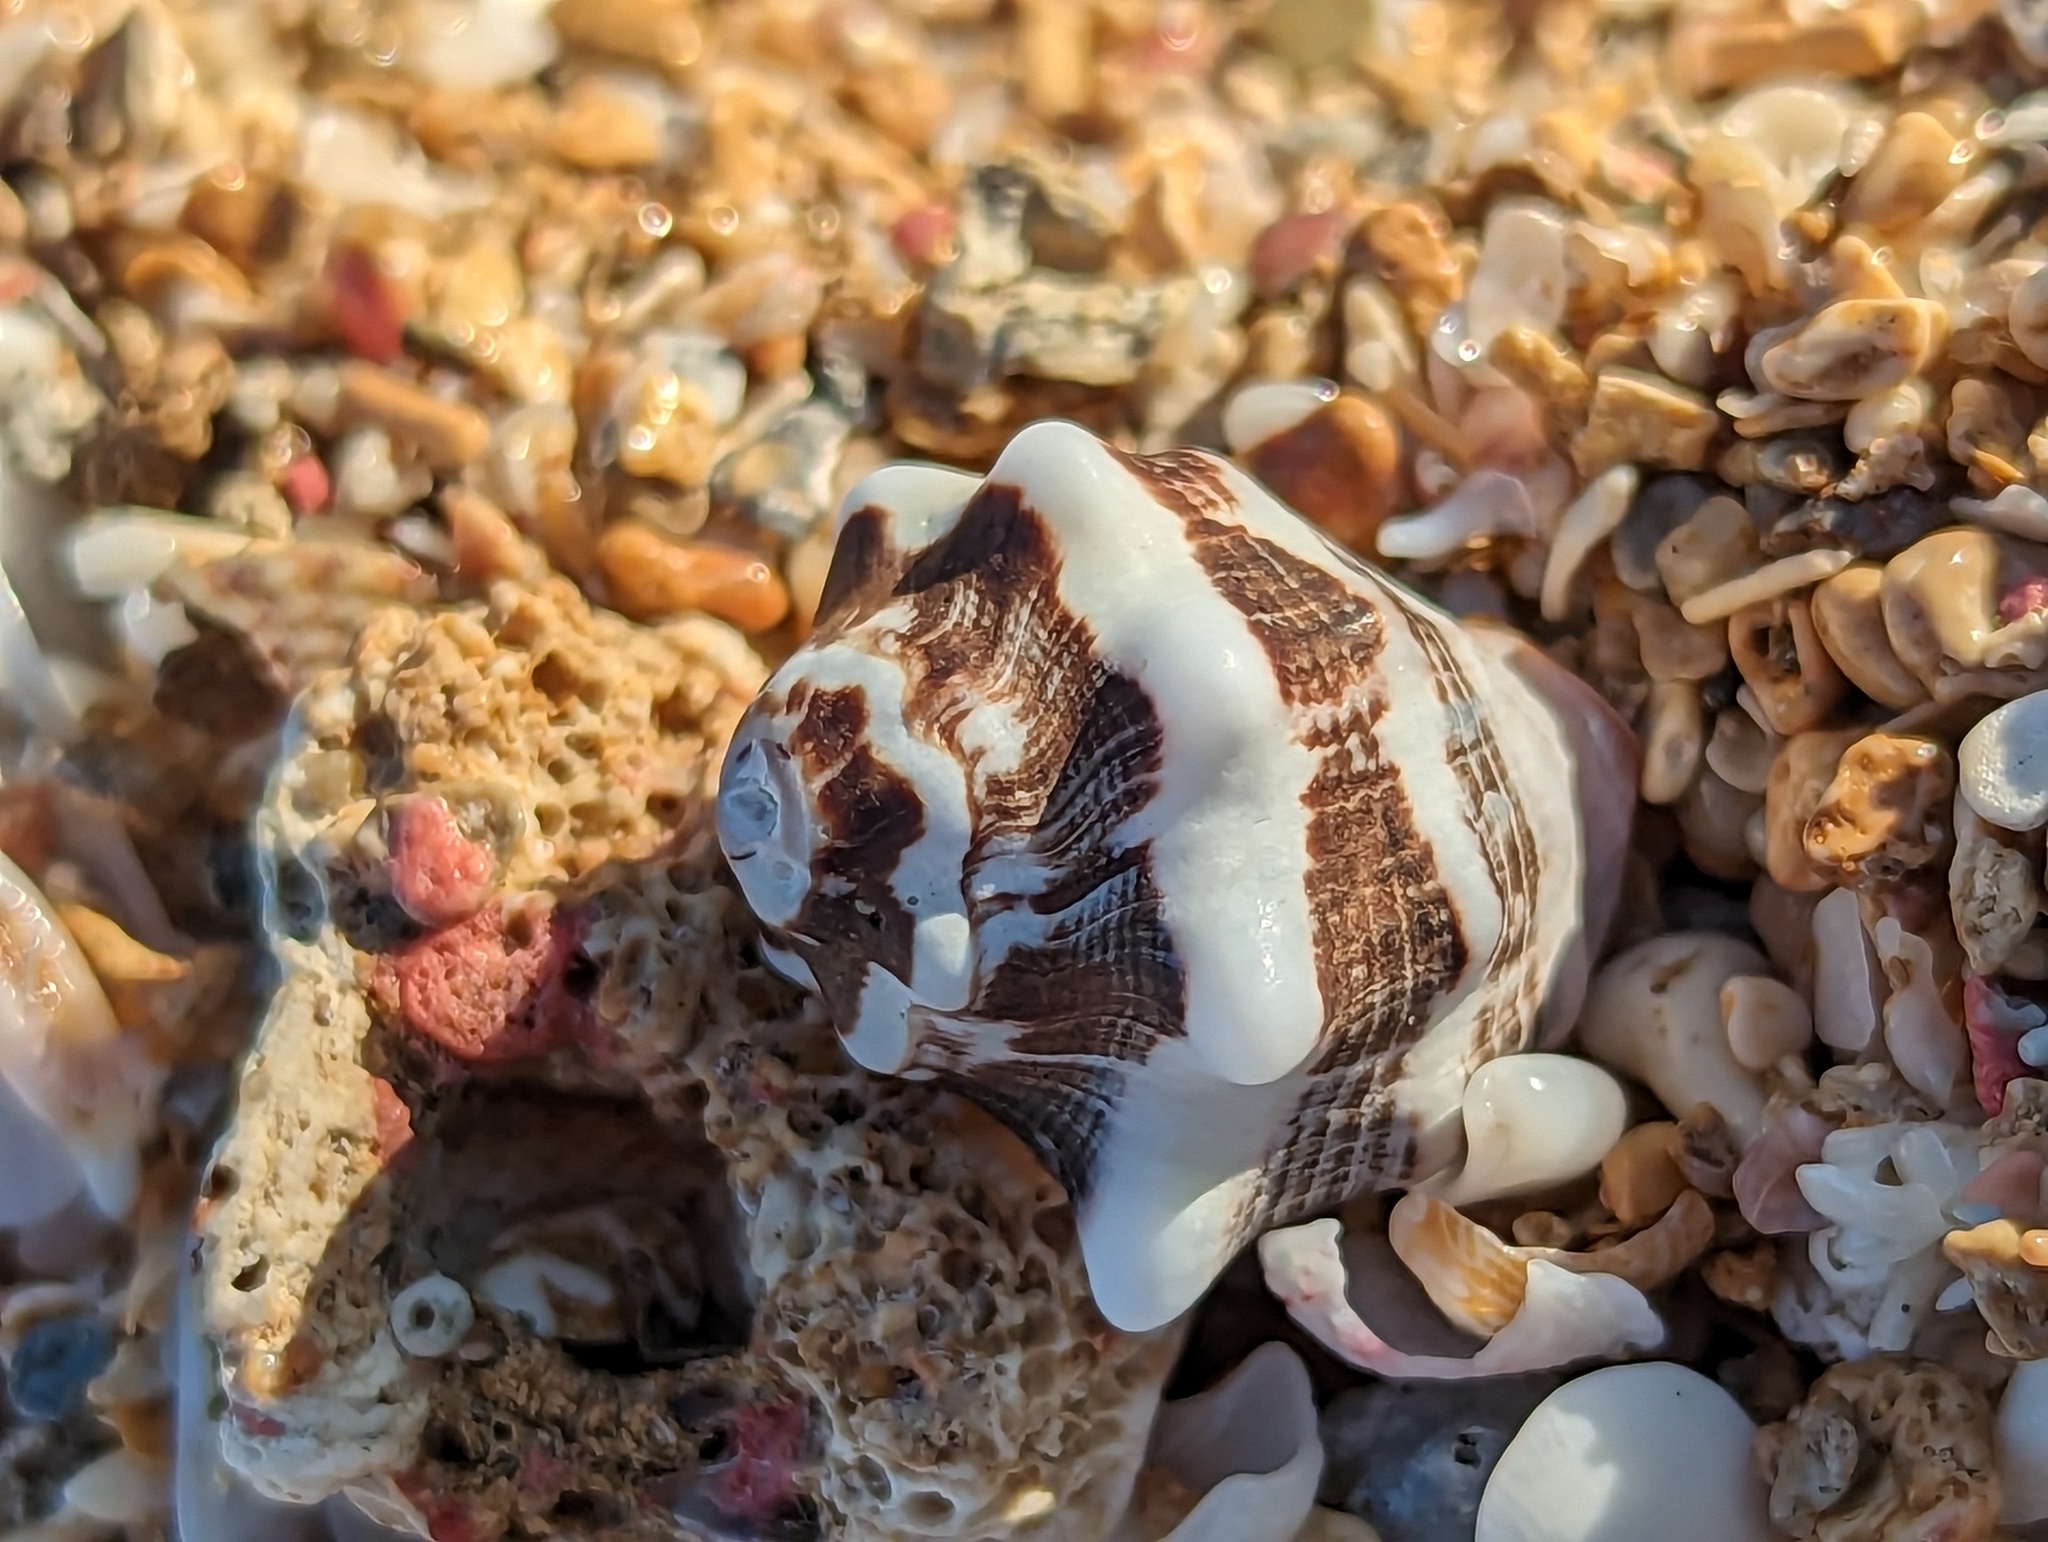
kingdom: Animalia
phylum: Mollusca
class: Gastropoda
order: Neogastropoda
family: Muricidae
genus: Vasula
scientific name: Vasula deltoidea
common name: Deltoid rocksnail
